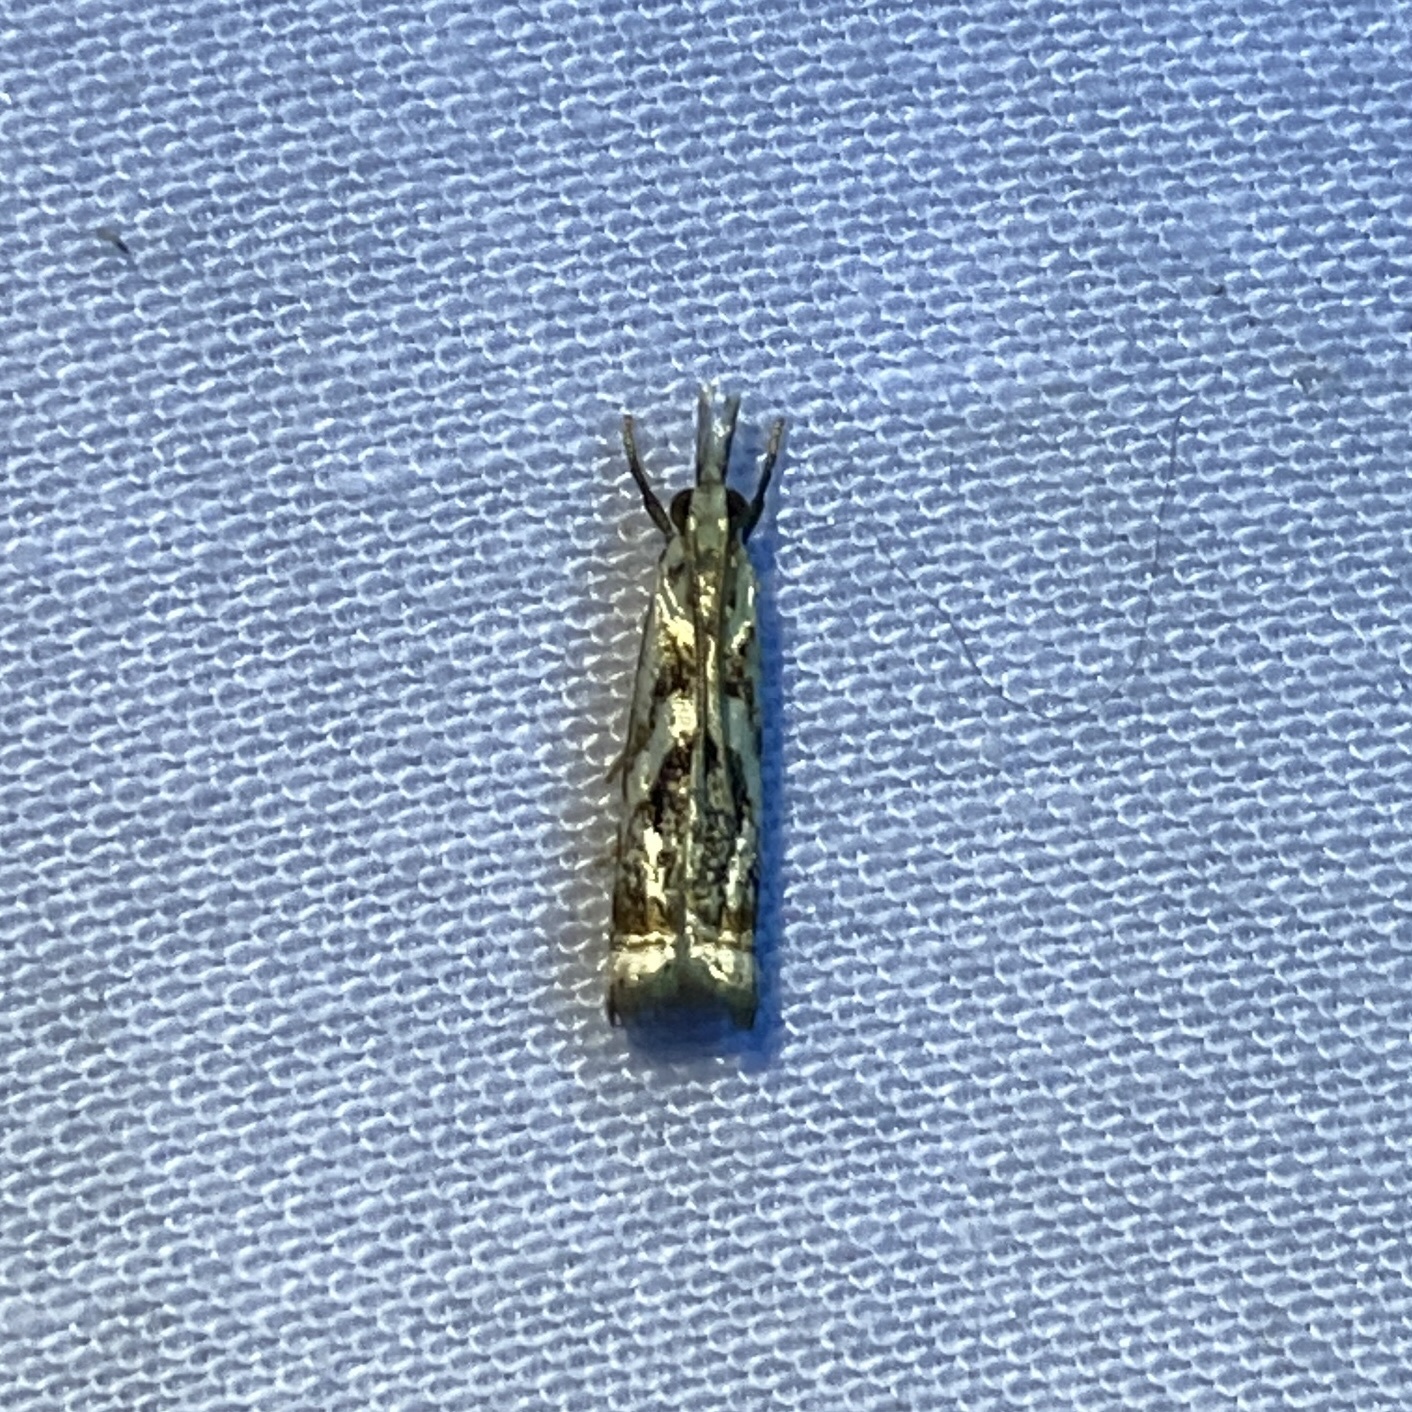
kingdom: Animalia
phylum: Arthropoda
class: Insecta
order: Lepidoptera
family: Crambidae
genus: Microcrambus
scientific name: Microcrambus elegans
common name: Elegant grass-veneer
